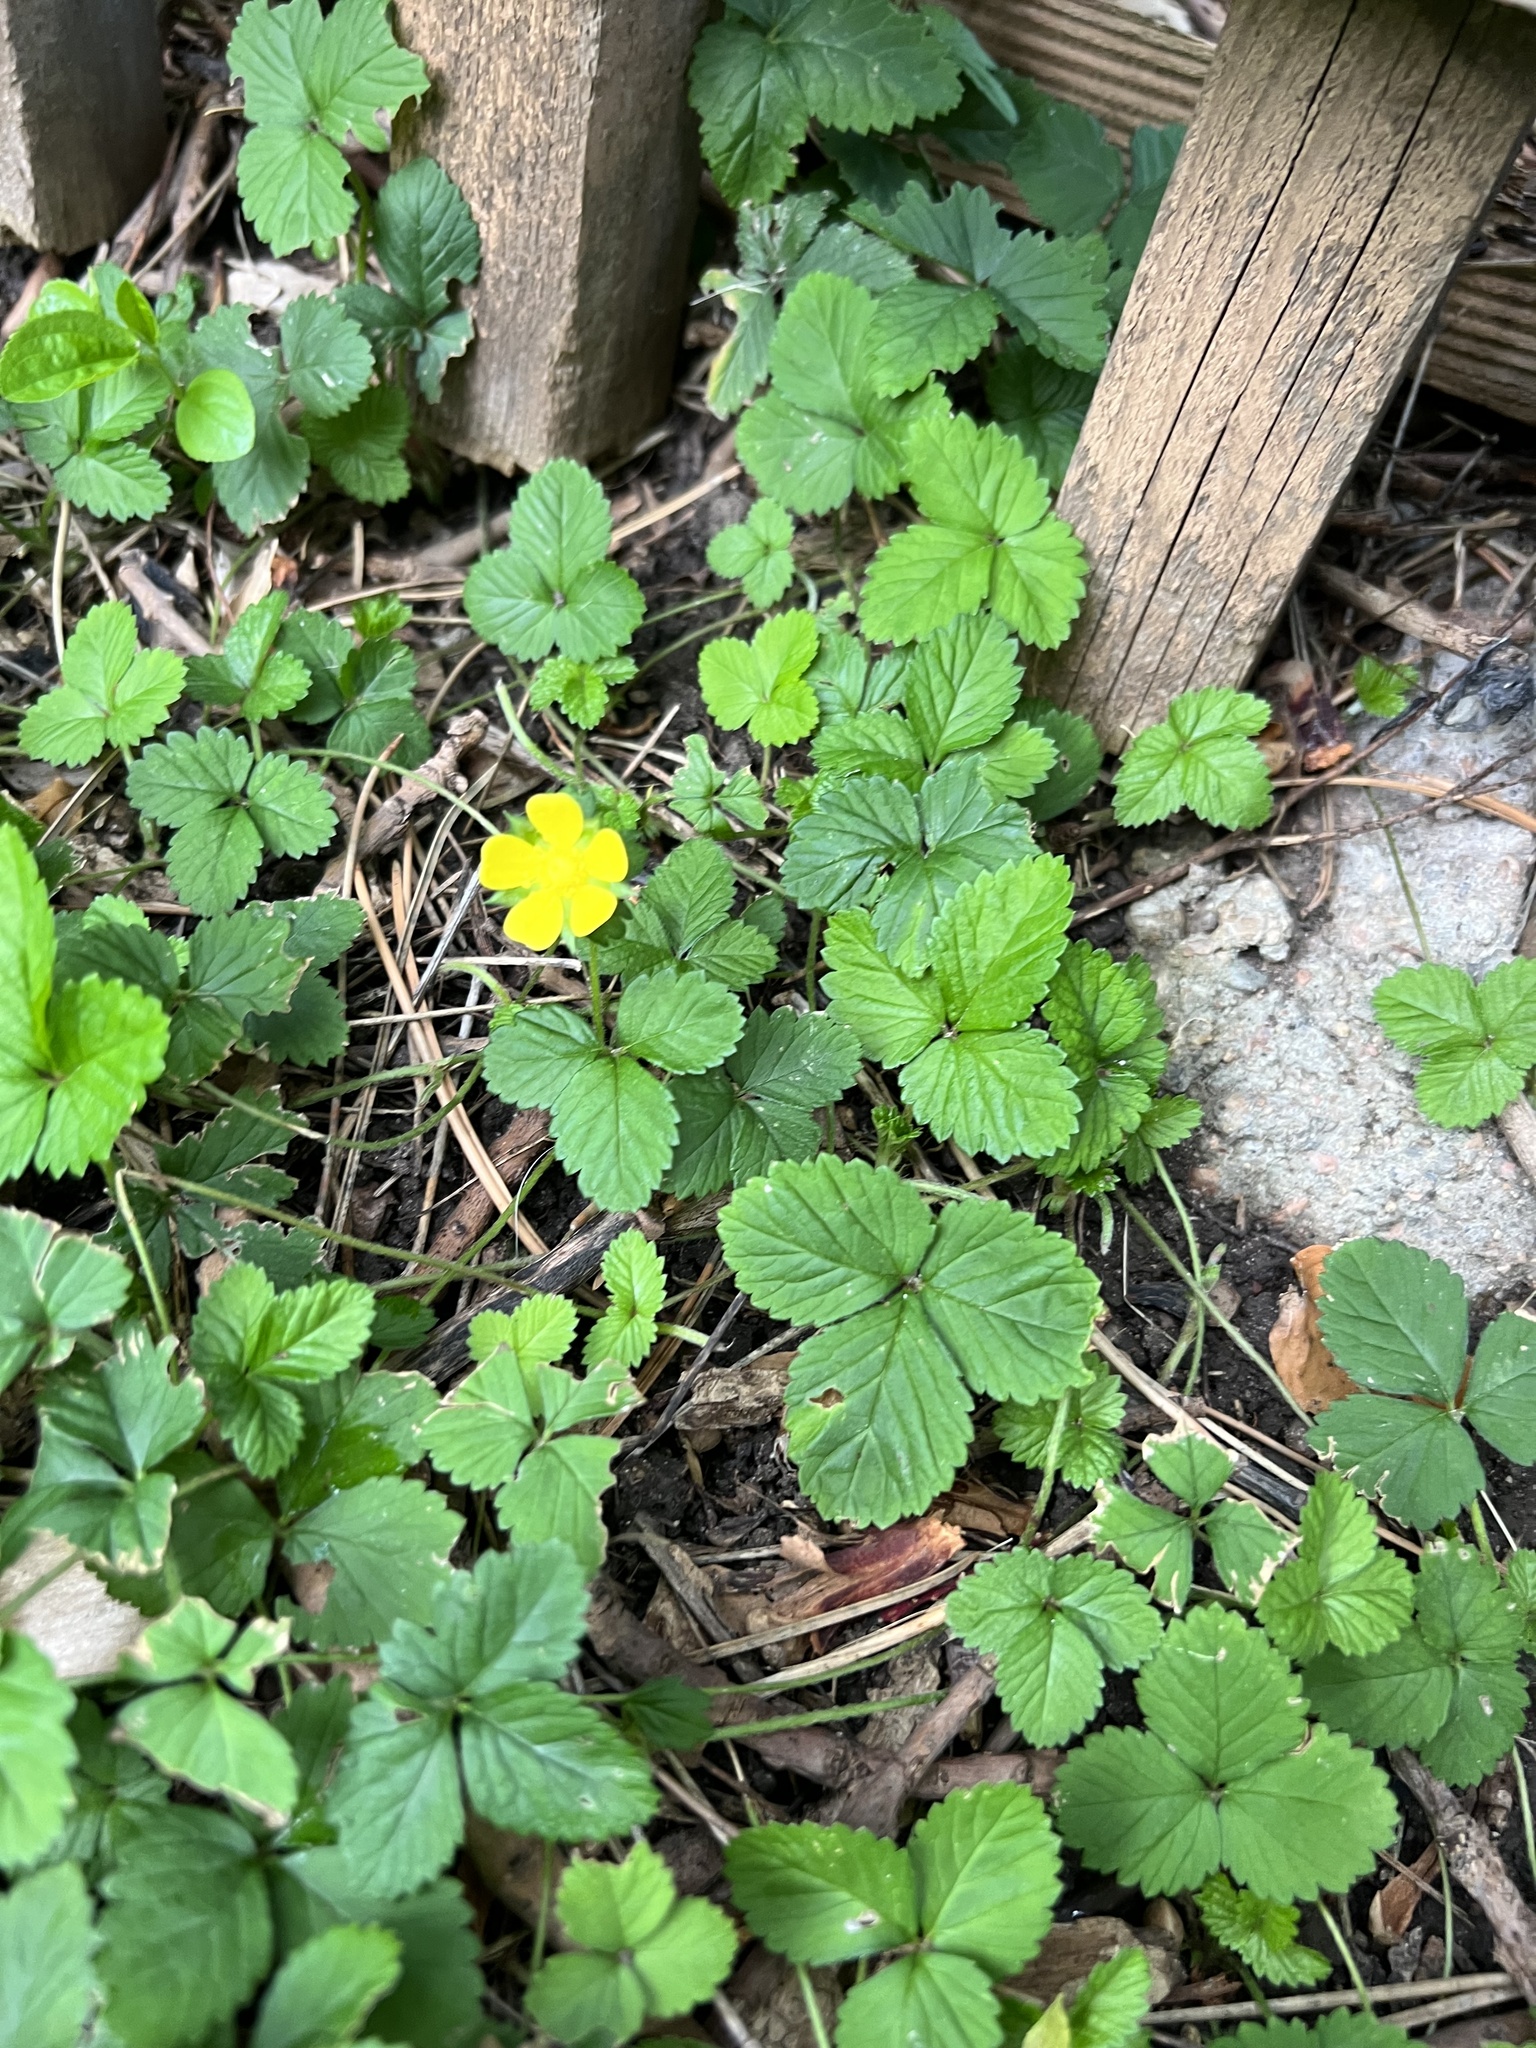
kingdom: Plantae
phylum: Tracheophyta
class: Magnoliopsida
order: Rosales
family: Rosaceae
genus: Potentilla
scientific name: Potentilla indica
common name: Yellow-flowered strawberry
